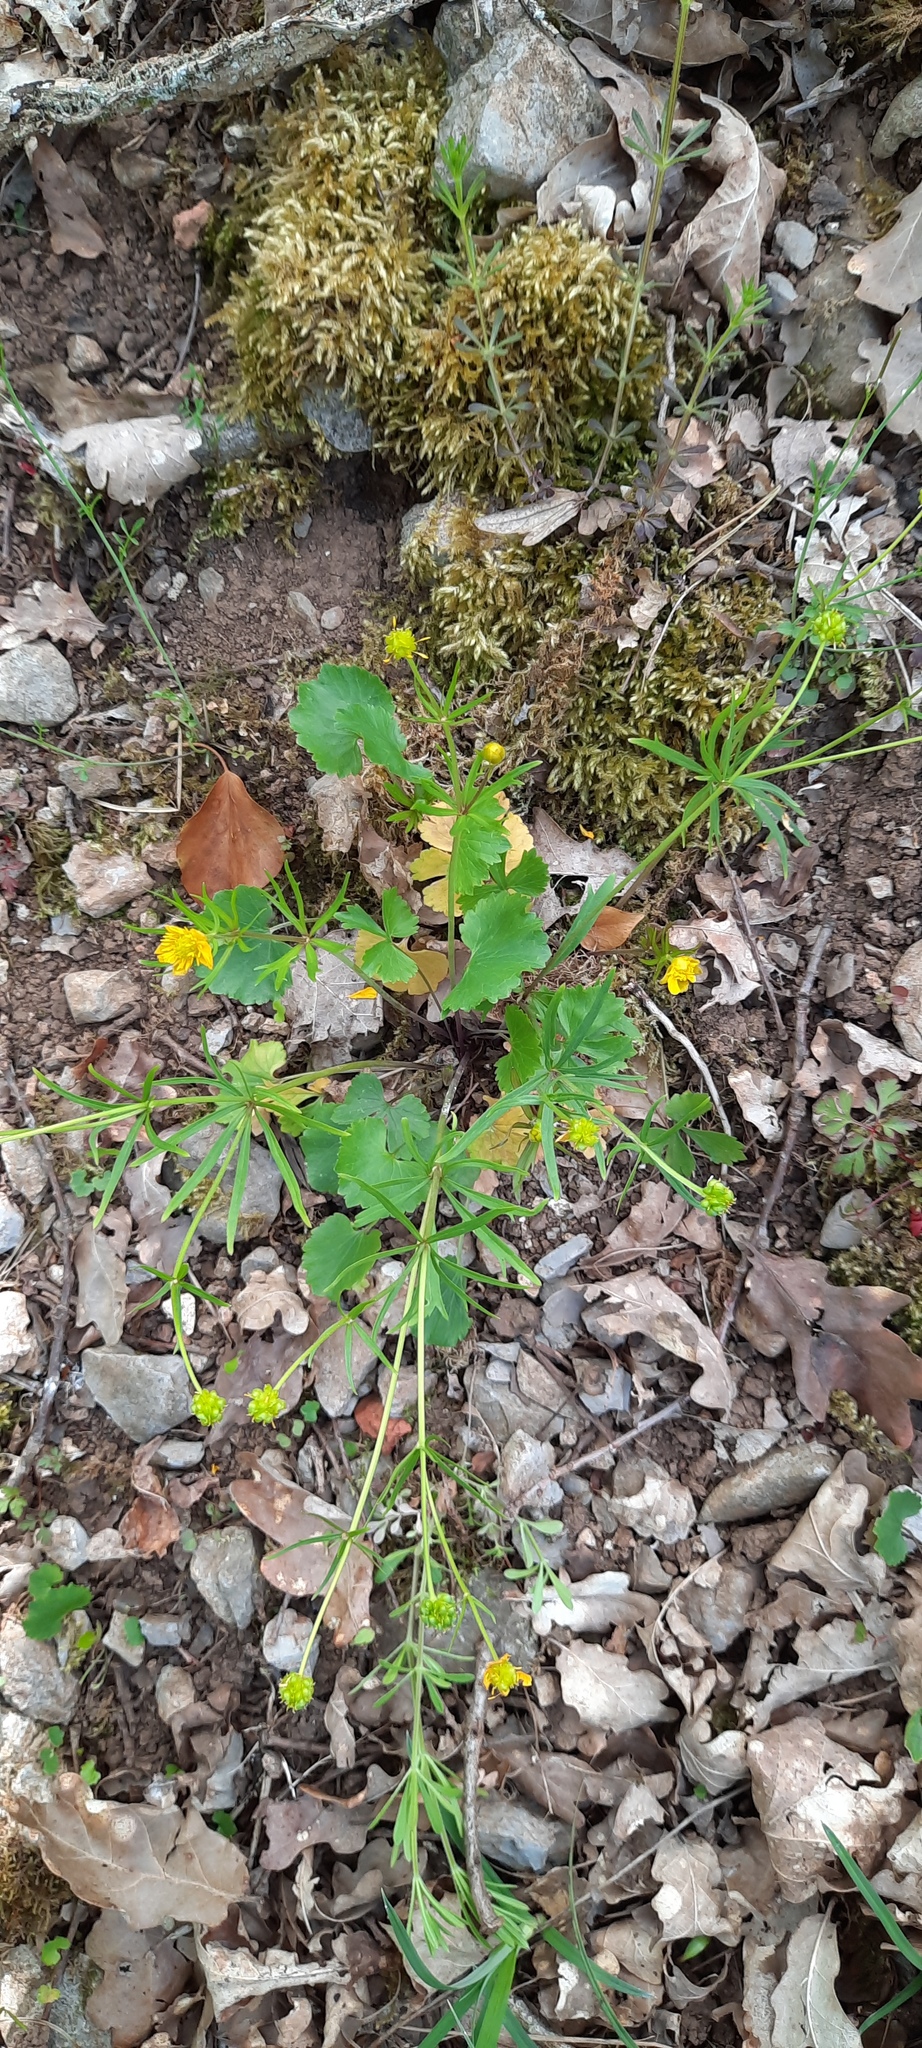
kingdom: Plantae
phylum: Tracheophyta
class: Magnoliopsida
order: Ranunculales
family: Ranunculaceae
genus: Ranunculus
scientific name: Ranunculus auricomus
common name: Goldilocks buttercup
